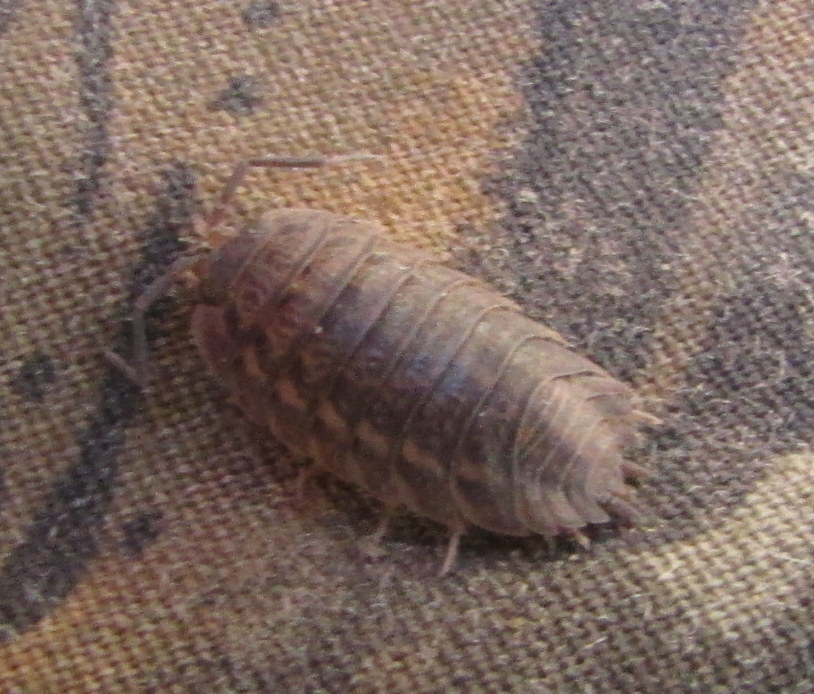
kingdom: Animalia
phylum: Arthropoda
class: Malacostraca
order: Isopoda
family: Trachelipodidae
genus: Trachelipus
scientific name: Trachelipus rathkii
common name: Isopod
